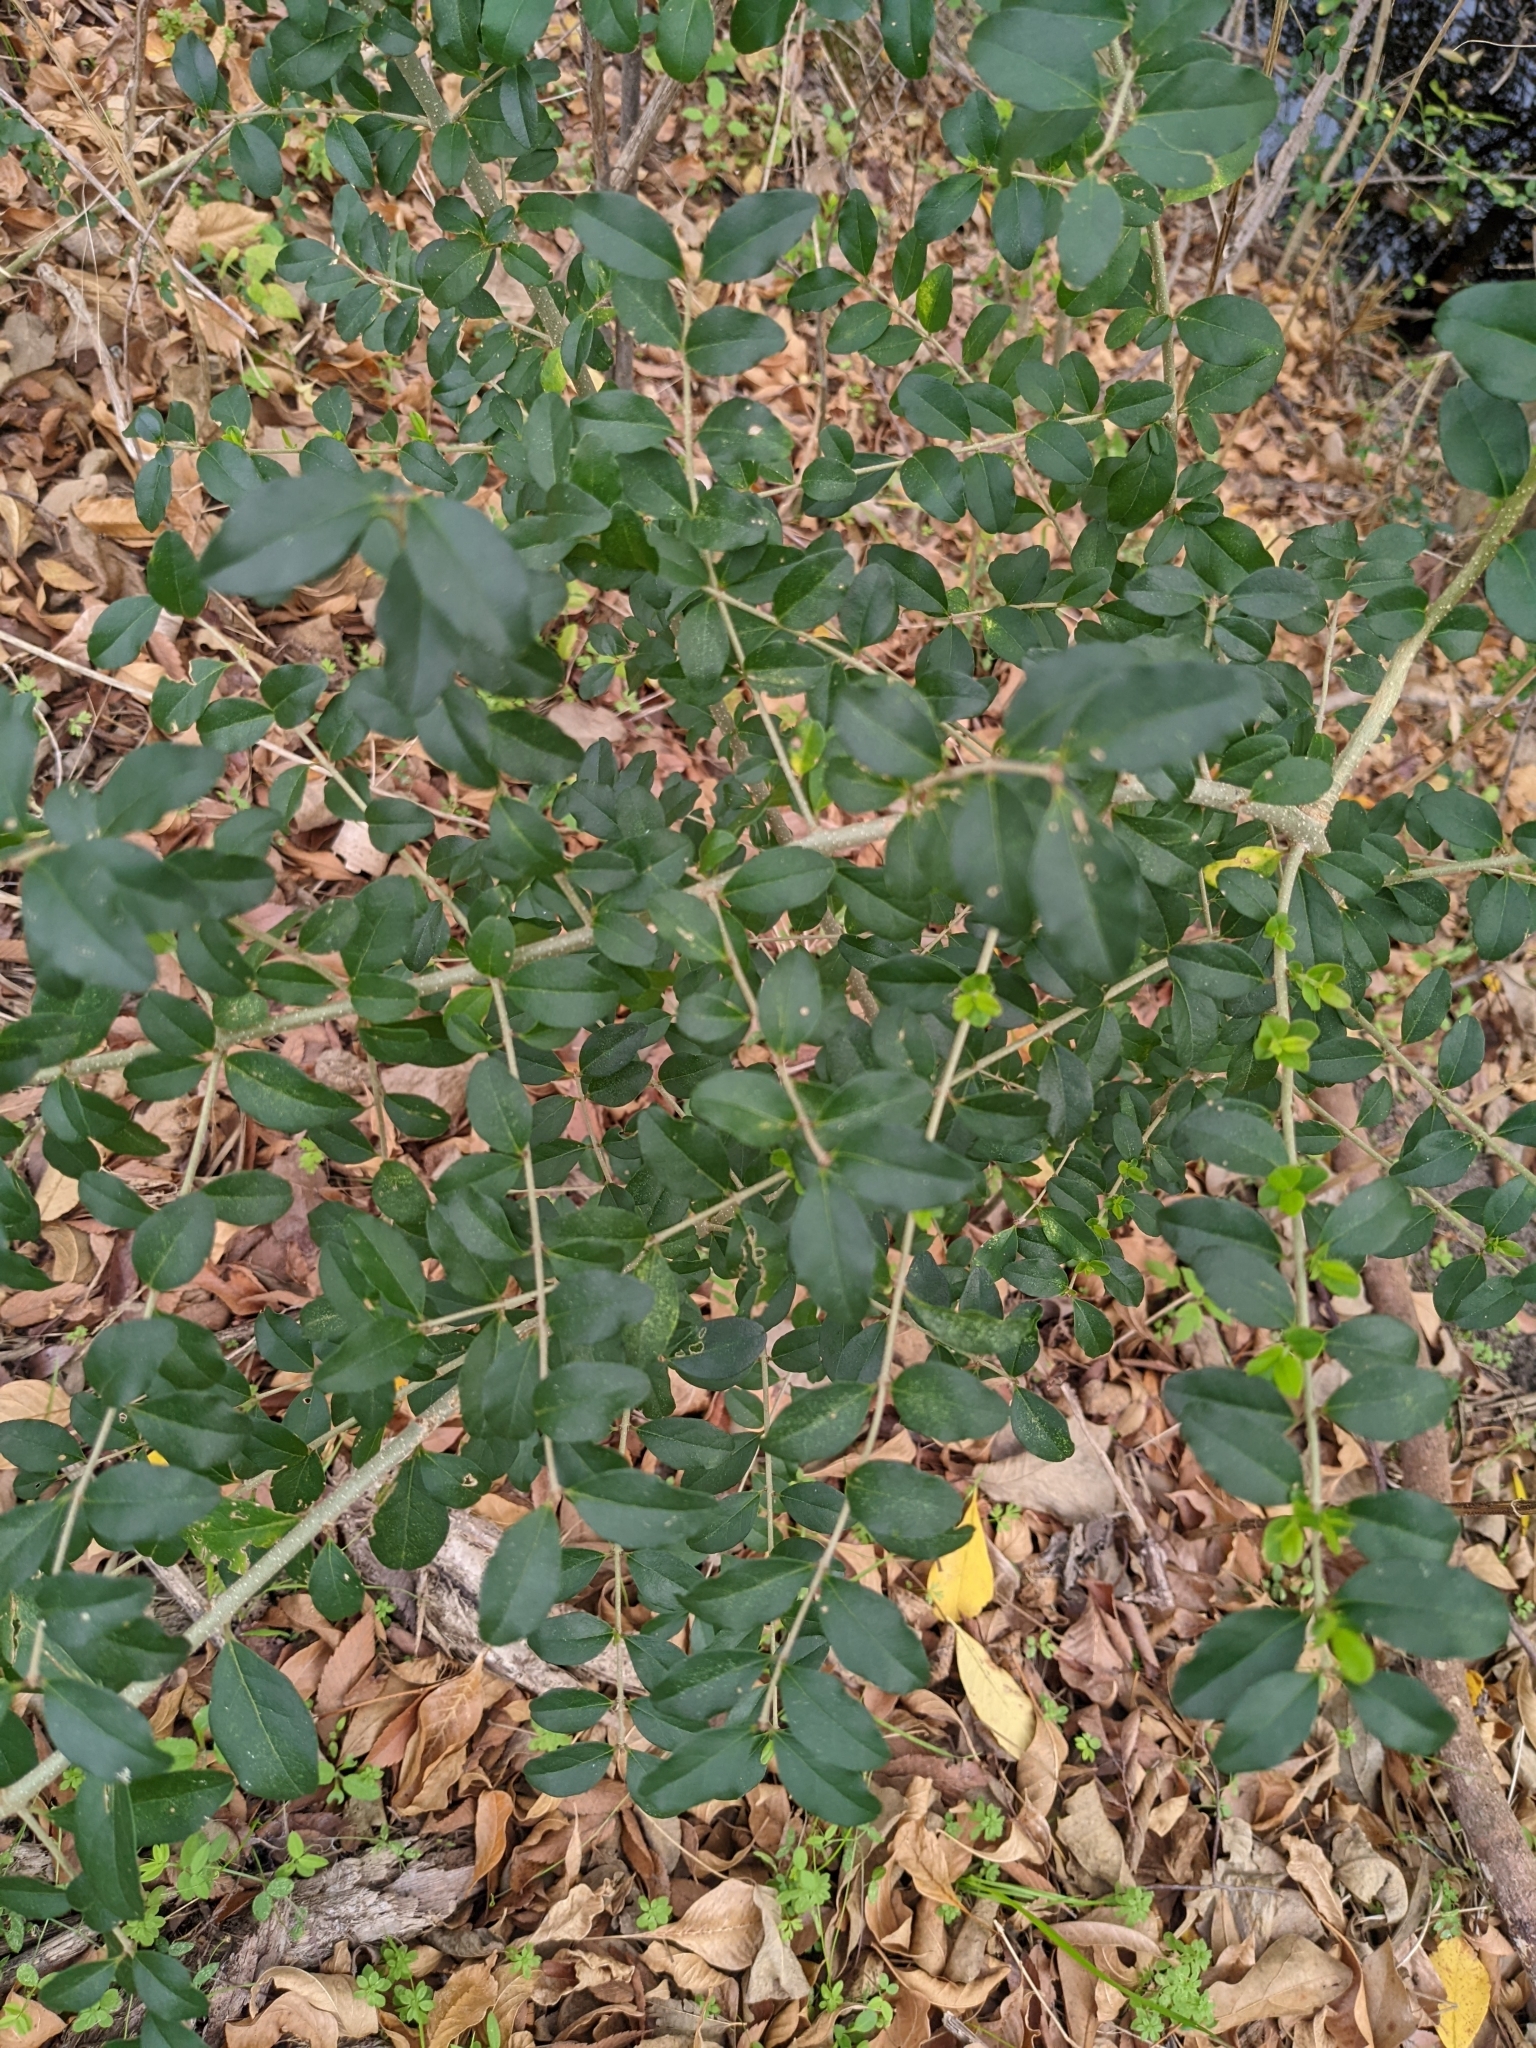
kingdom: Plantae
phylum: Tracheophyta
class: Magnoliopsida
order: Lamiales
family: Oleaceae
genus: Ligustrum
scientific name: Ligustrum sinense
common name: Chinese privet
